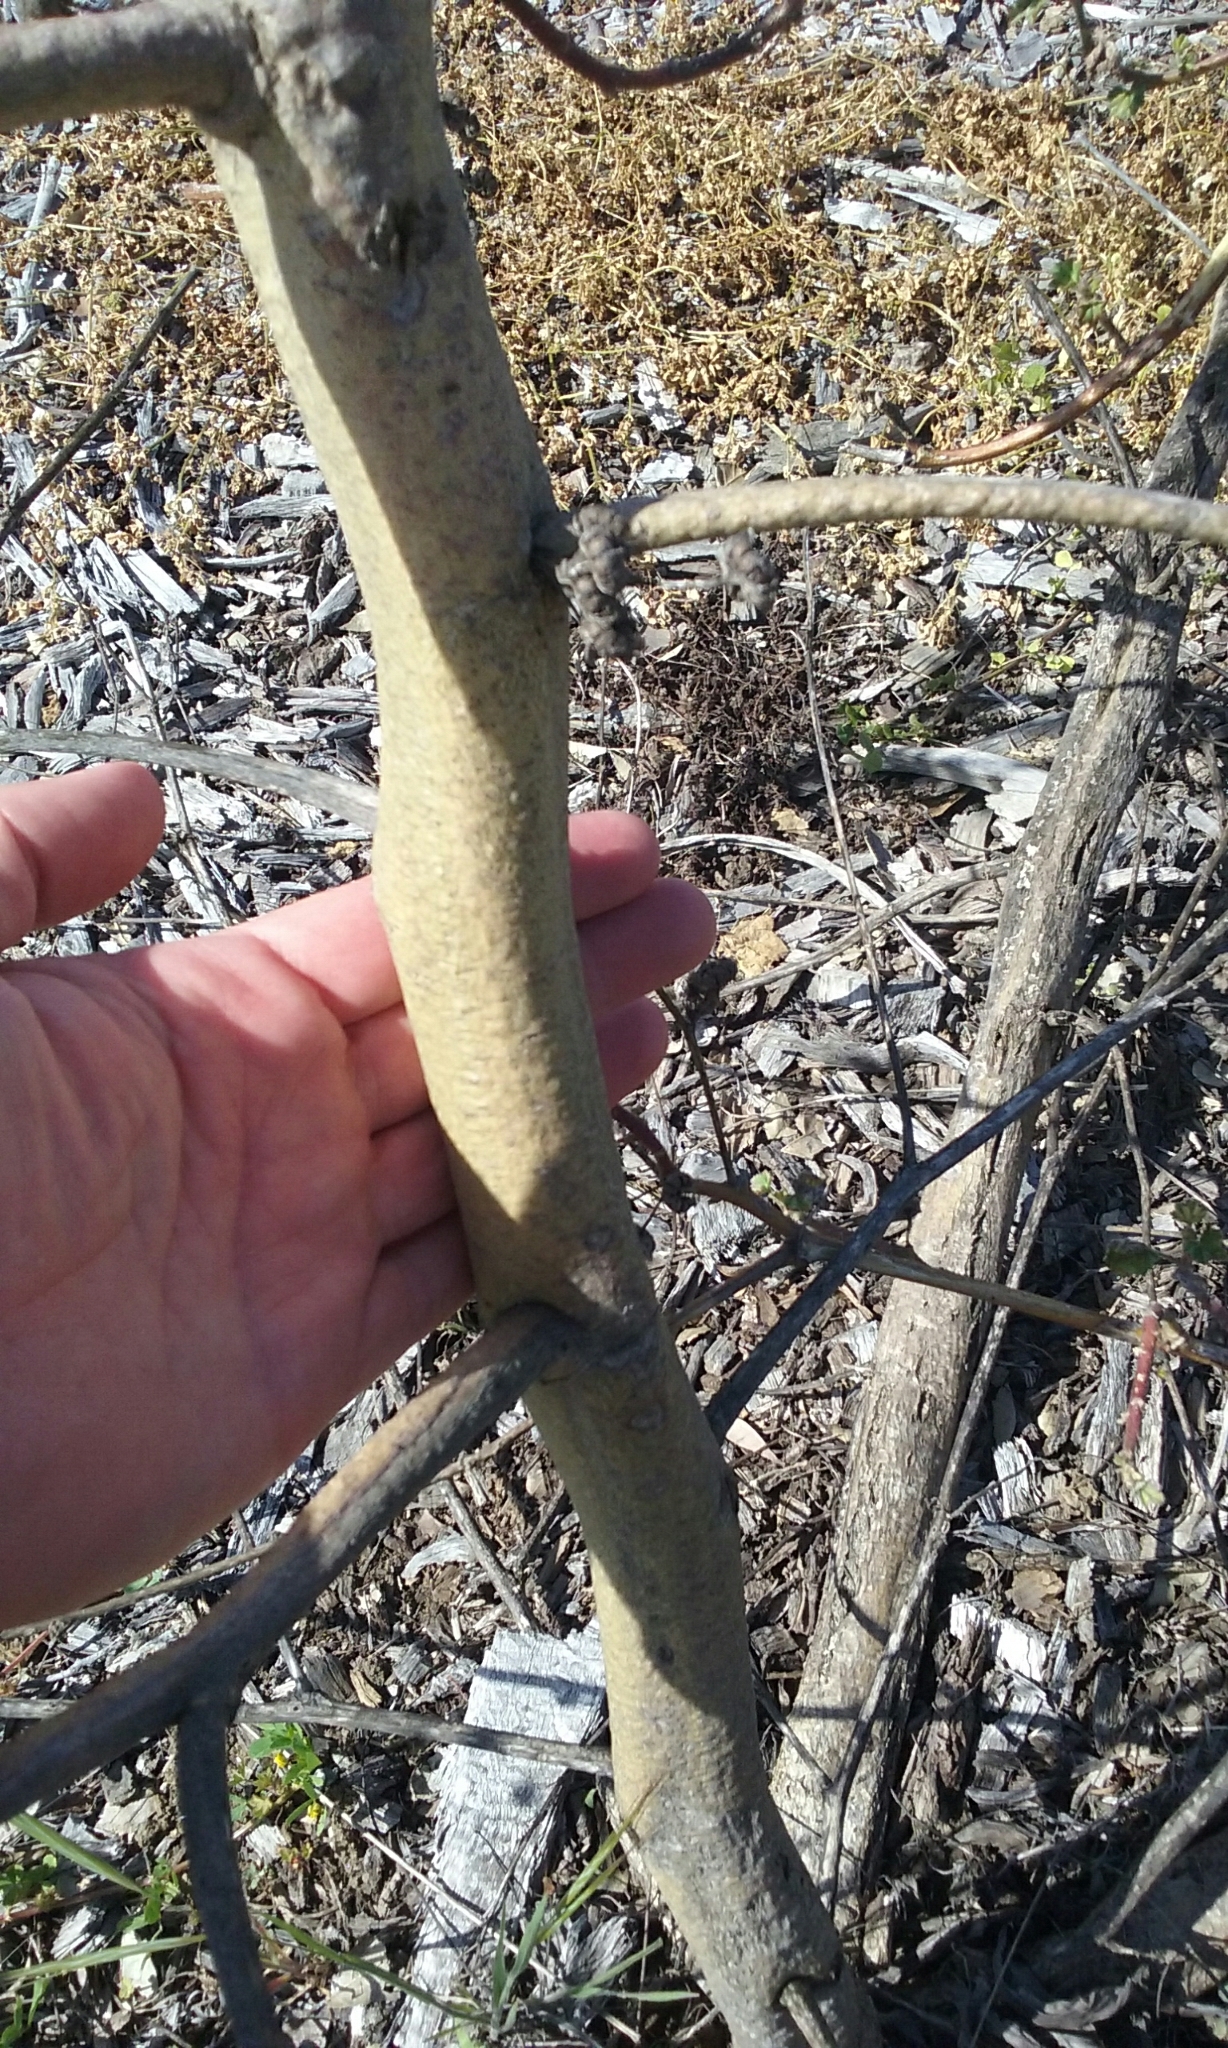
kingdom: Plantae
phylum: Tracheophyta
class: Magnoliopsida
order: Malvales
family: Malvaceae
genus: Malva
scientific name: Malva multiflora
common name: Cheeseweed
